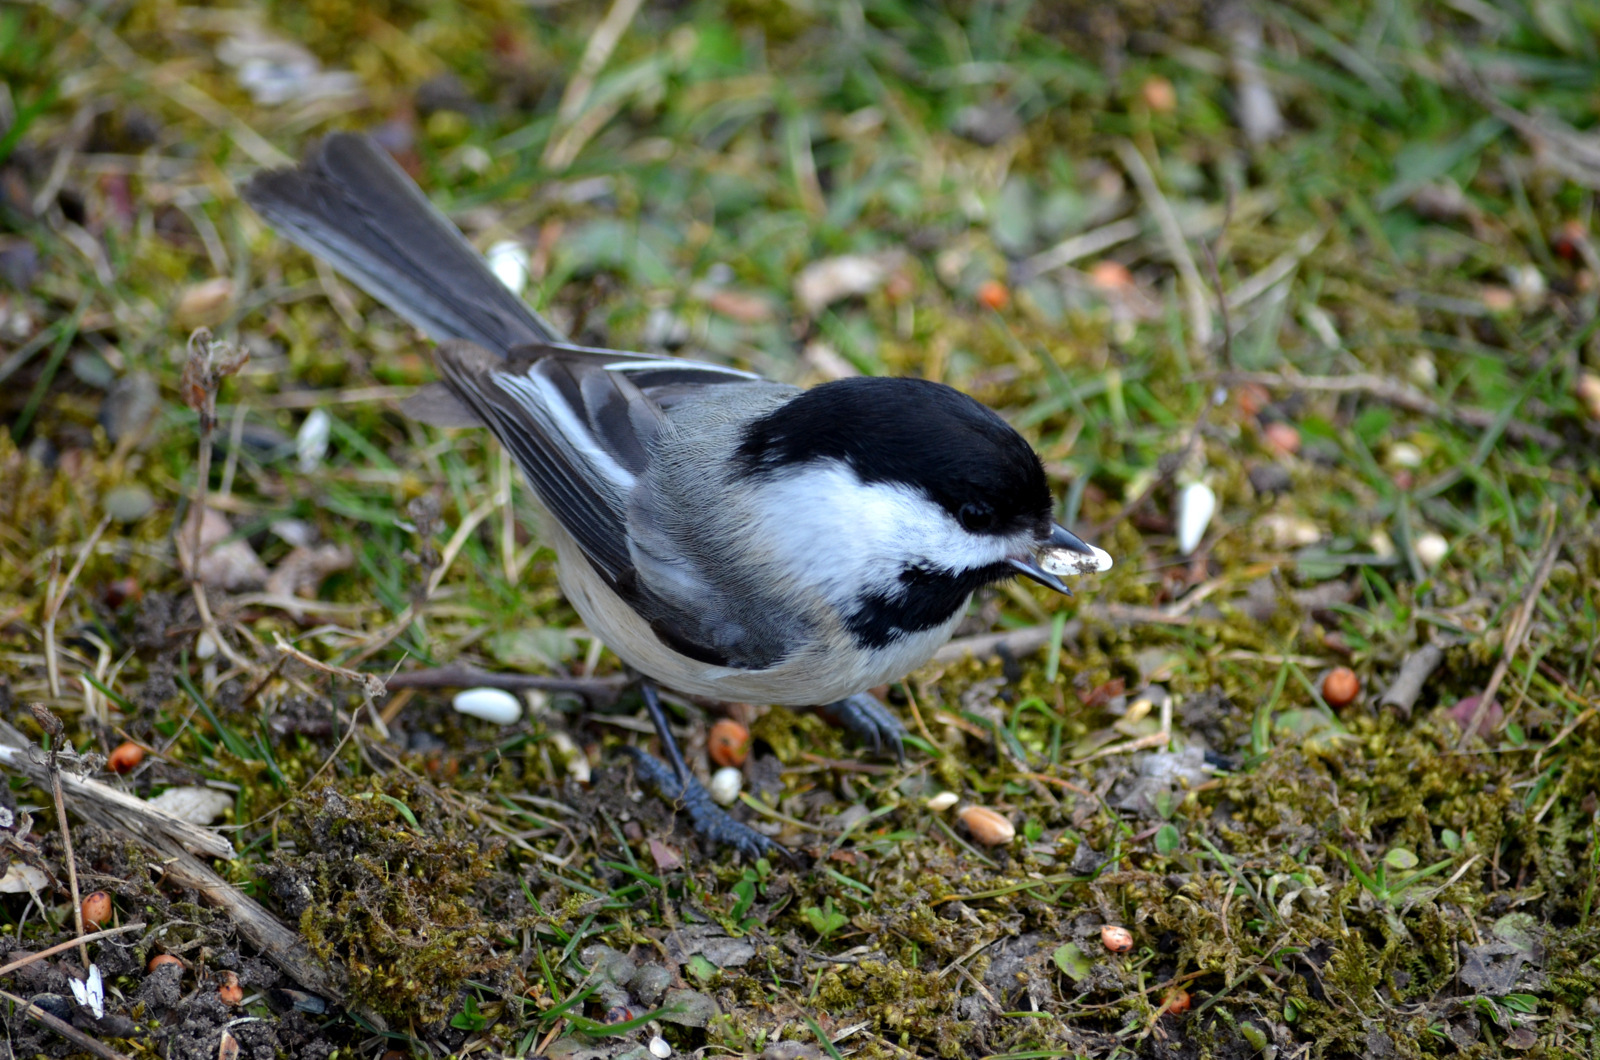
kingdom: Animalia
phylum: Chordata
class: Aves
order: Passeriformes
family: Paridae
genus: Poecile
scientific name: Poecile atricapillus
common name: Black-capped chickadee
